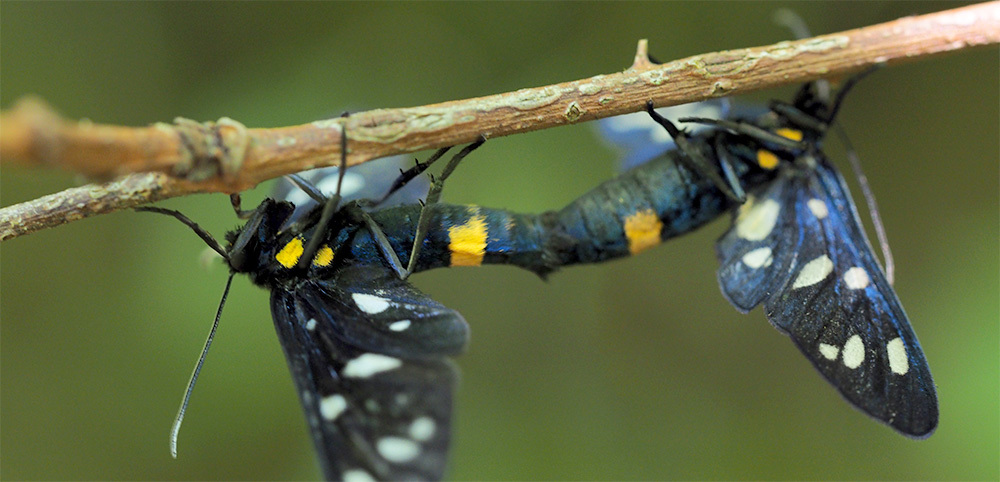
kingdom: Animalia
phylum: Arthropoda
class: Insecta
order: Lepidoptera
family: Erebidae
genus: Amata
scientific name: Amata ragazzii
